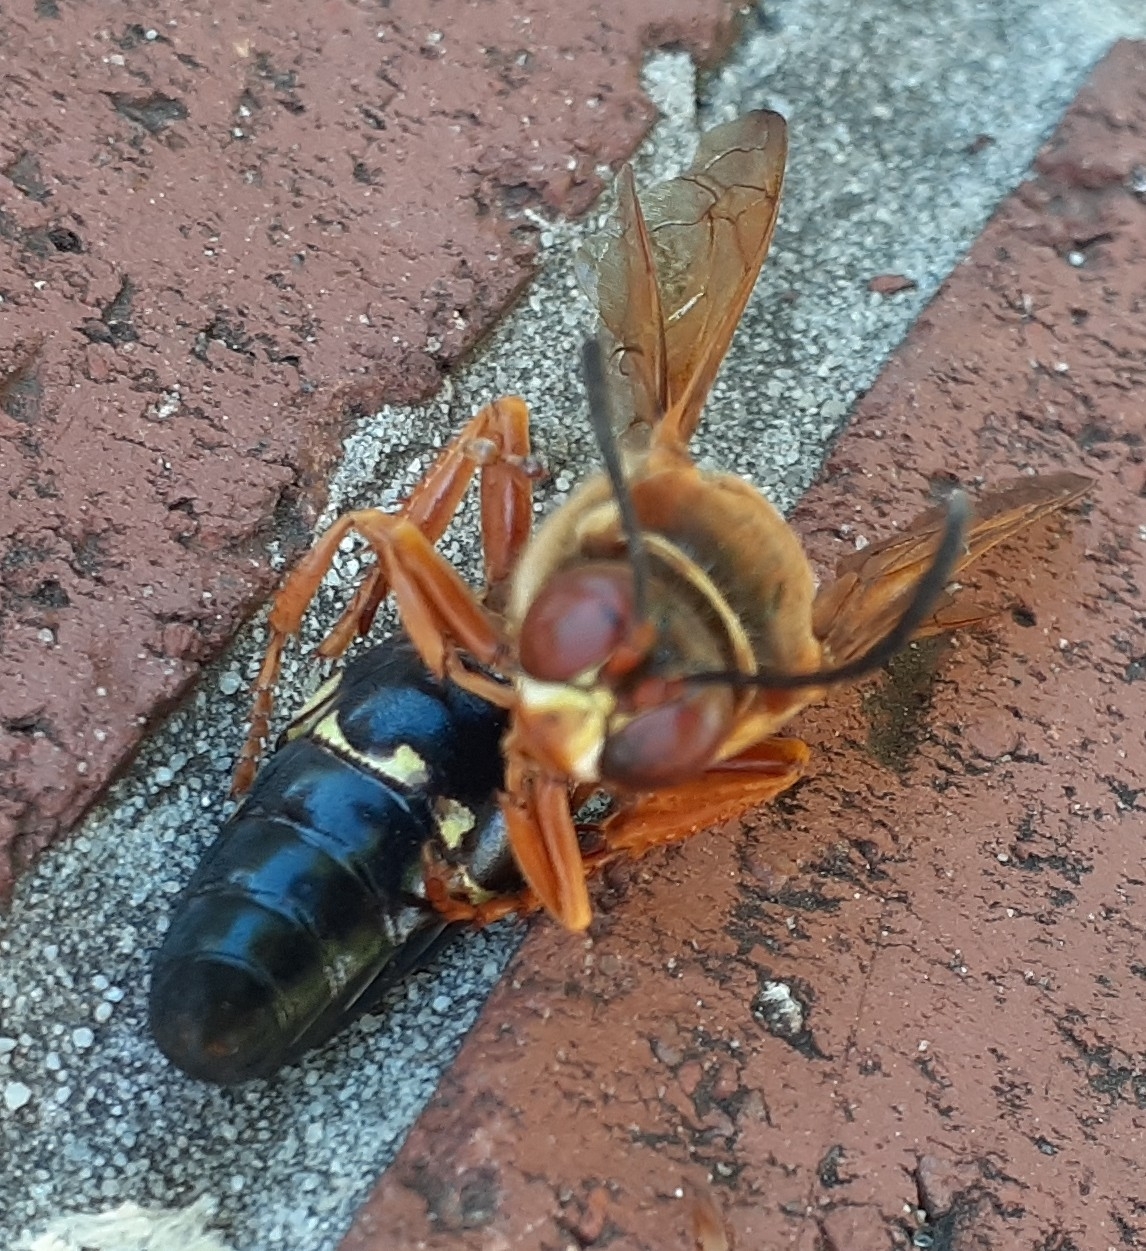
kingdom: Animalia
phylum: Arthropoda
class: Insecta
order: Hymenoptera
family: Crabronidae
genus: Sphecius
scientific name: Sphecius speciosus
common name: Cicada killer
